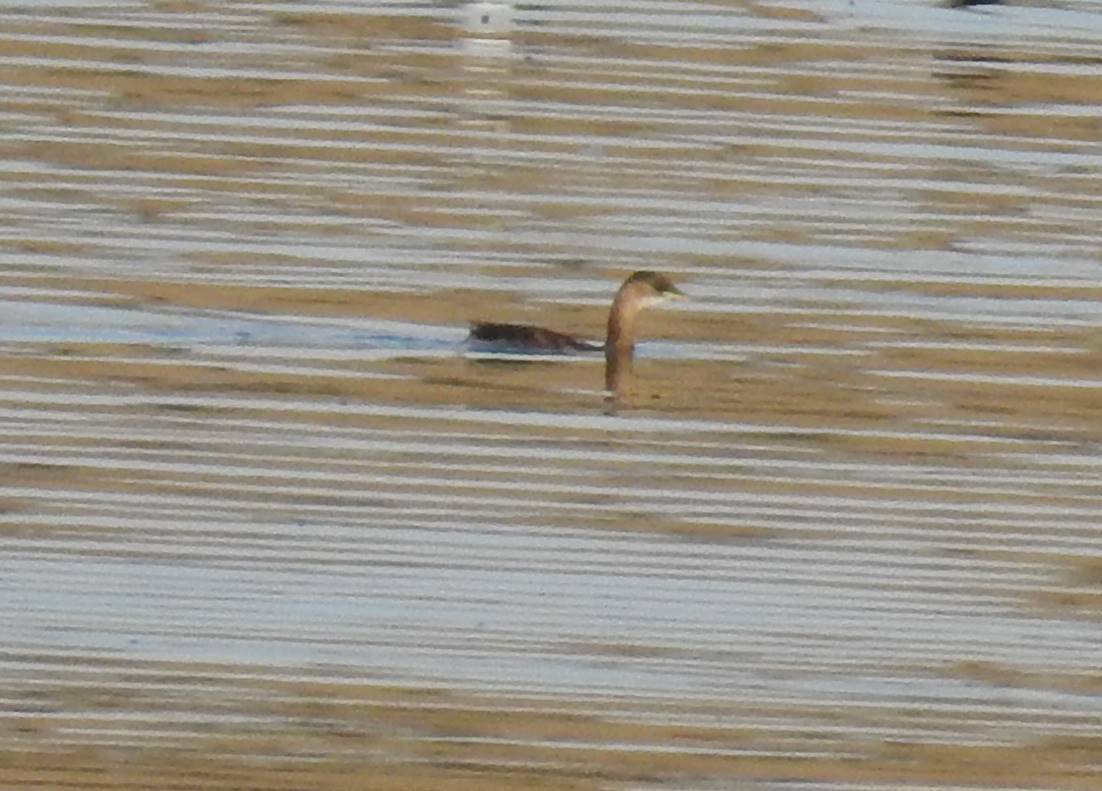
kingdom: Animalia
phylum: Chordata
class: Aves
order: Podicipediformes
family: Podicipedidae
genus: Tachybaptus
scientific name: Tachybaptus ruficollis
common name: Little grebe
